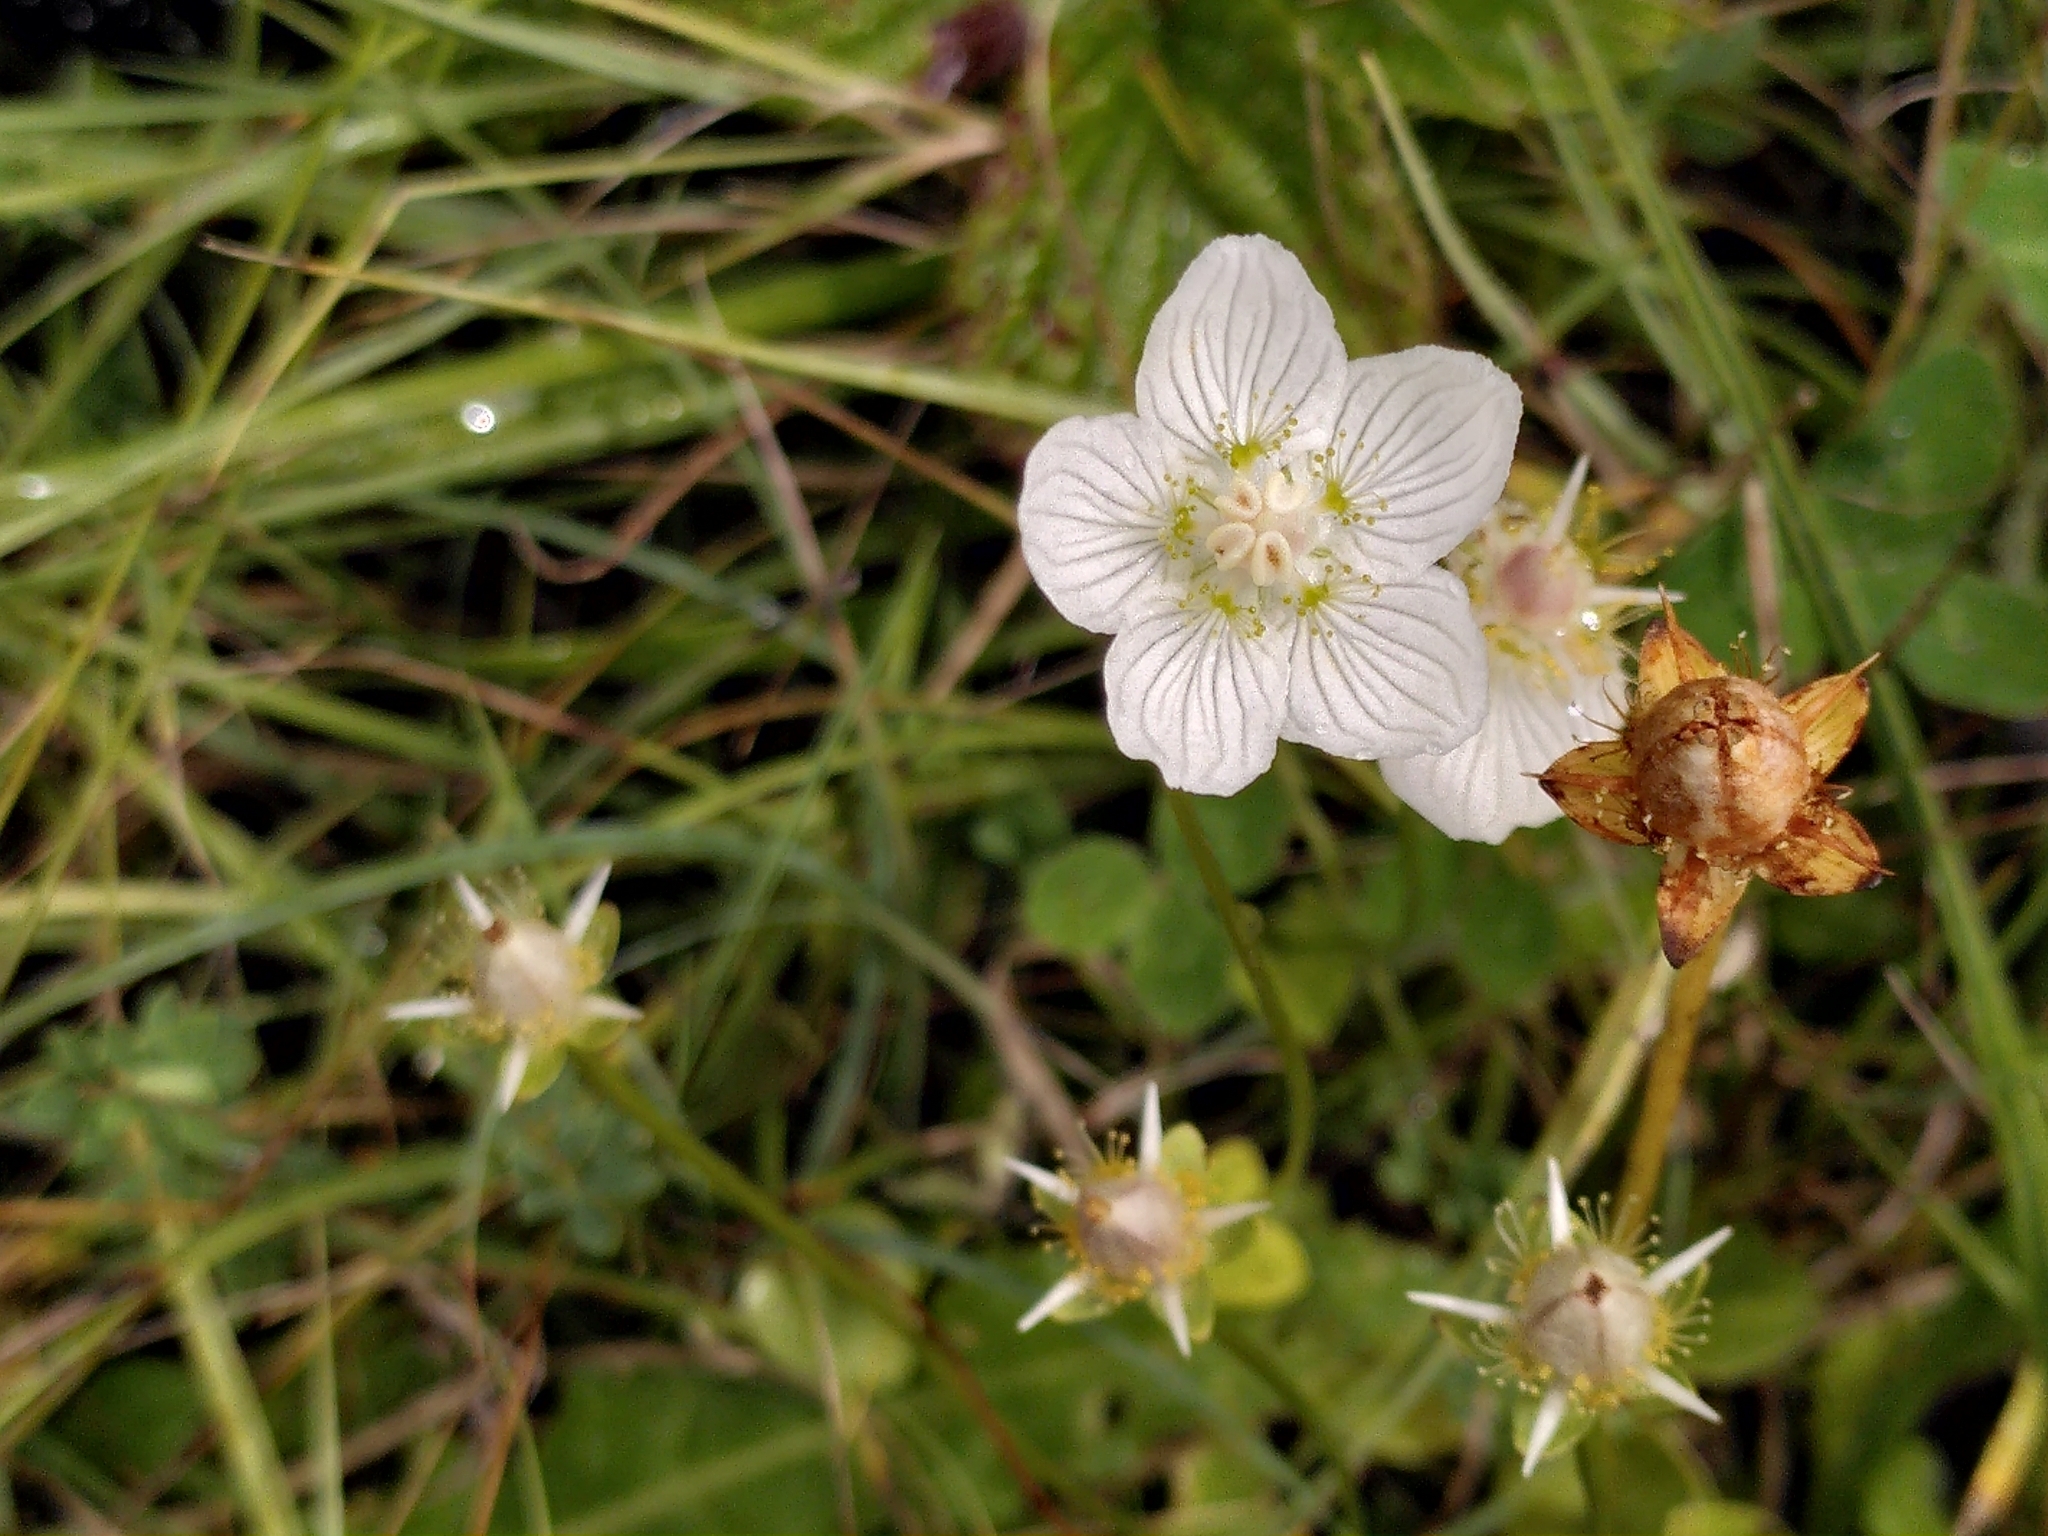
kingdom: Plantae
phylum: Tracheophyta
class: Magnoliopsida
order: Celastrales
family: Parnassiaceae
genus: Parnassia
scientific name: Parnassia palustris
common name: Grass-of-parnassus
